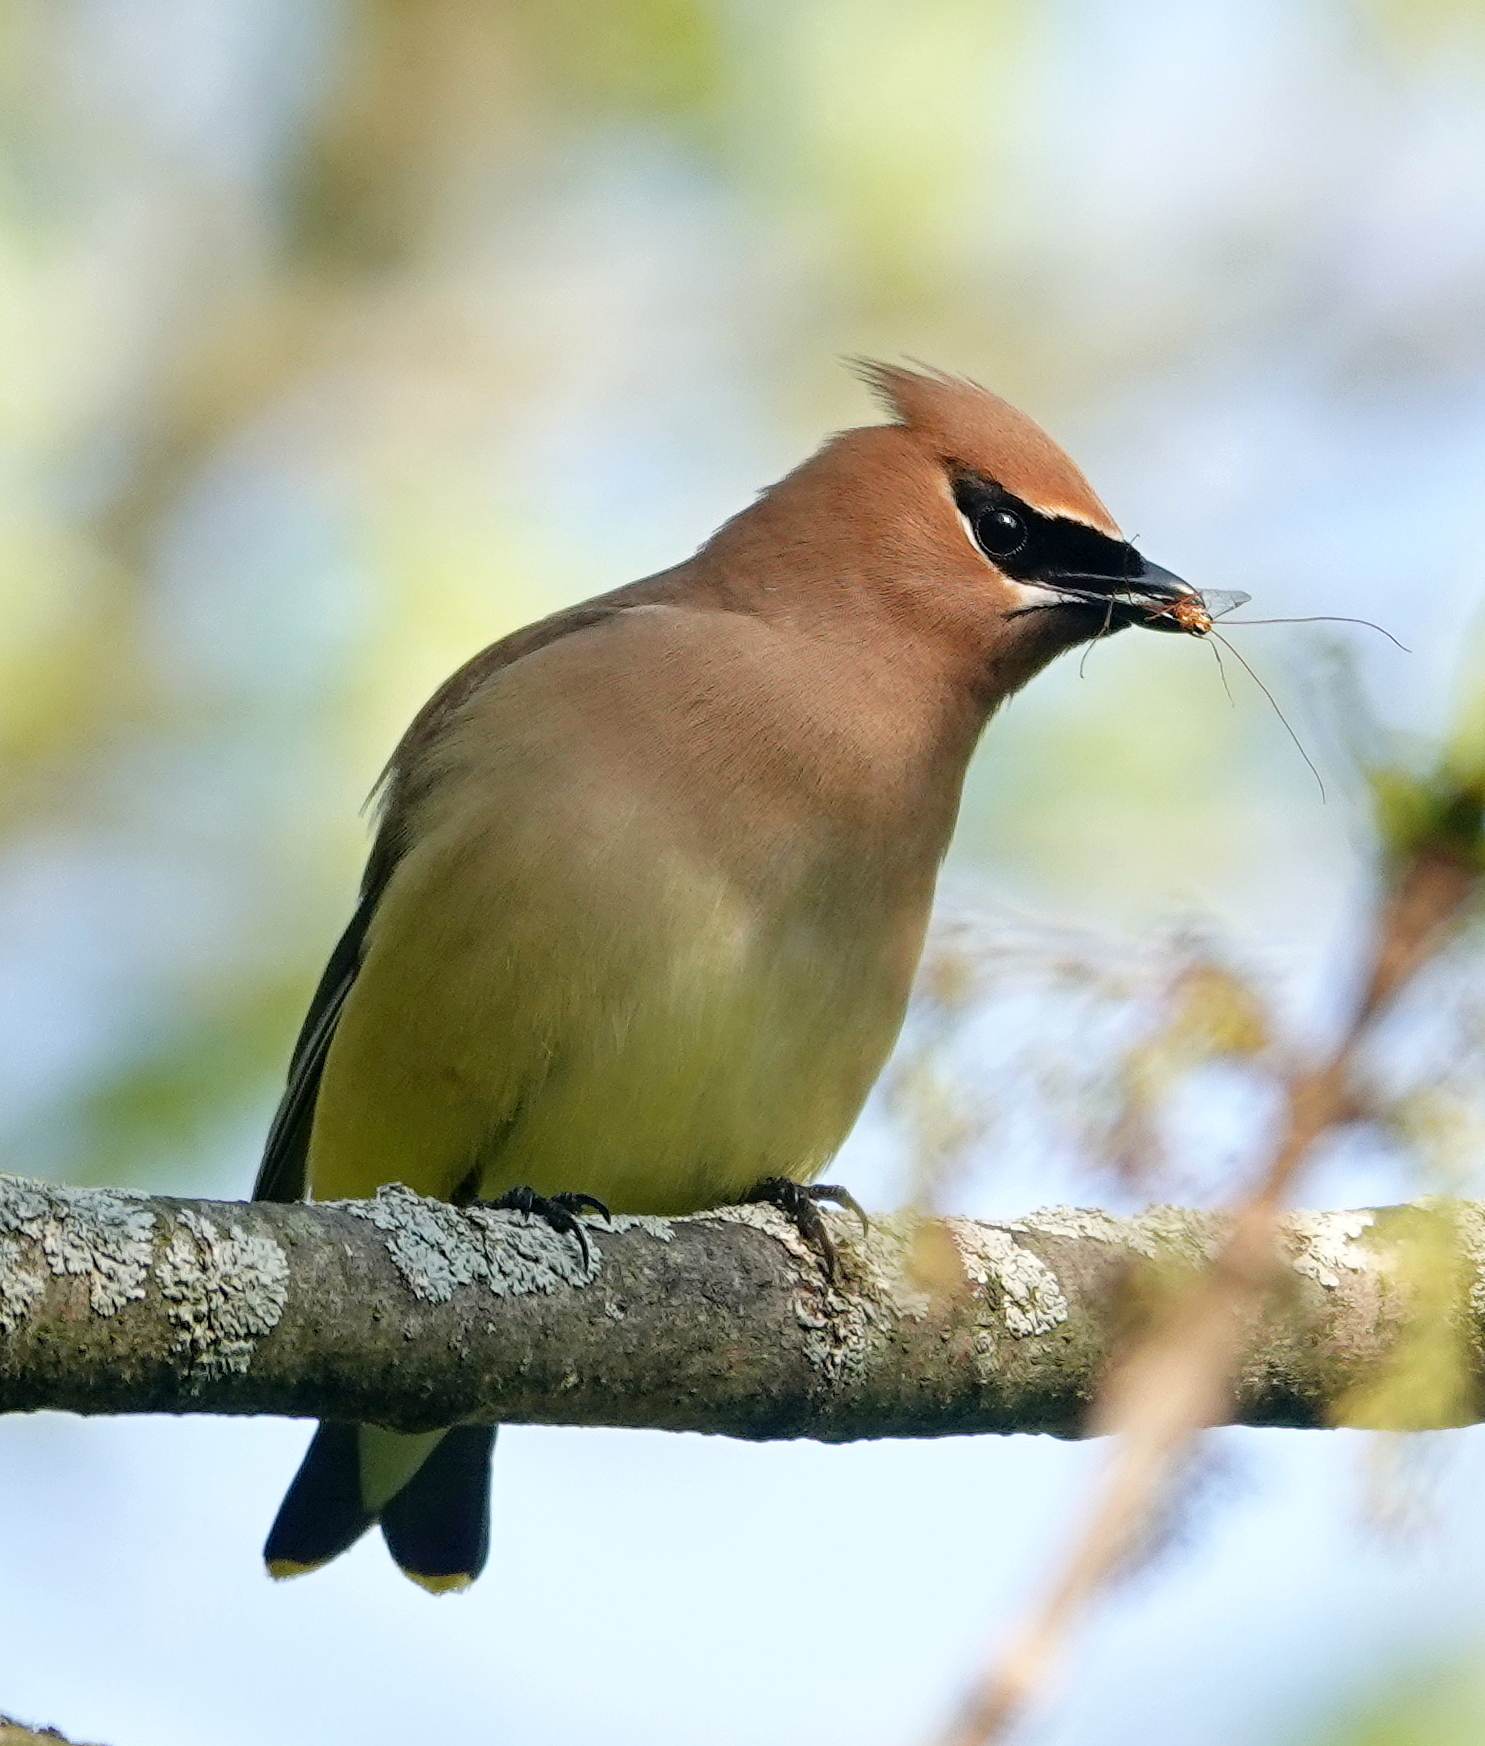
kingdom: Animalia
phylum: Chordata
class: Aves
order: Passeriformes
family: Bombycillidae
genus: Bombycilla
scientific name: Bombycilla cedrorum
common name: Cedar waxwing
